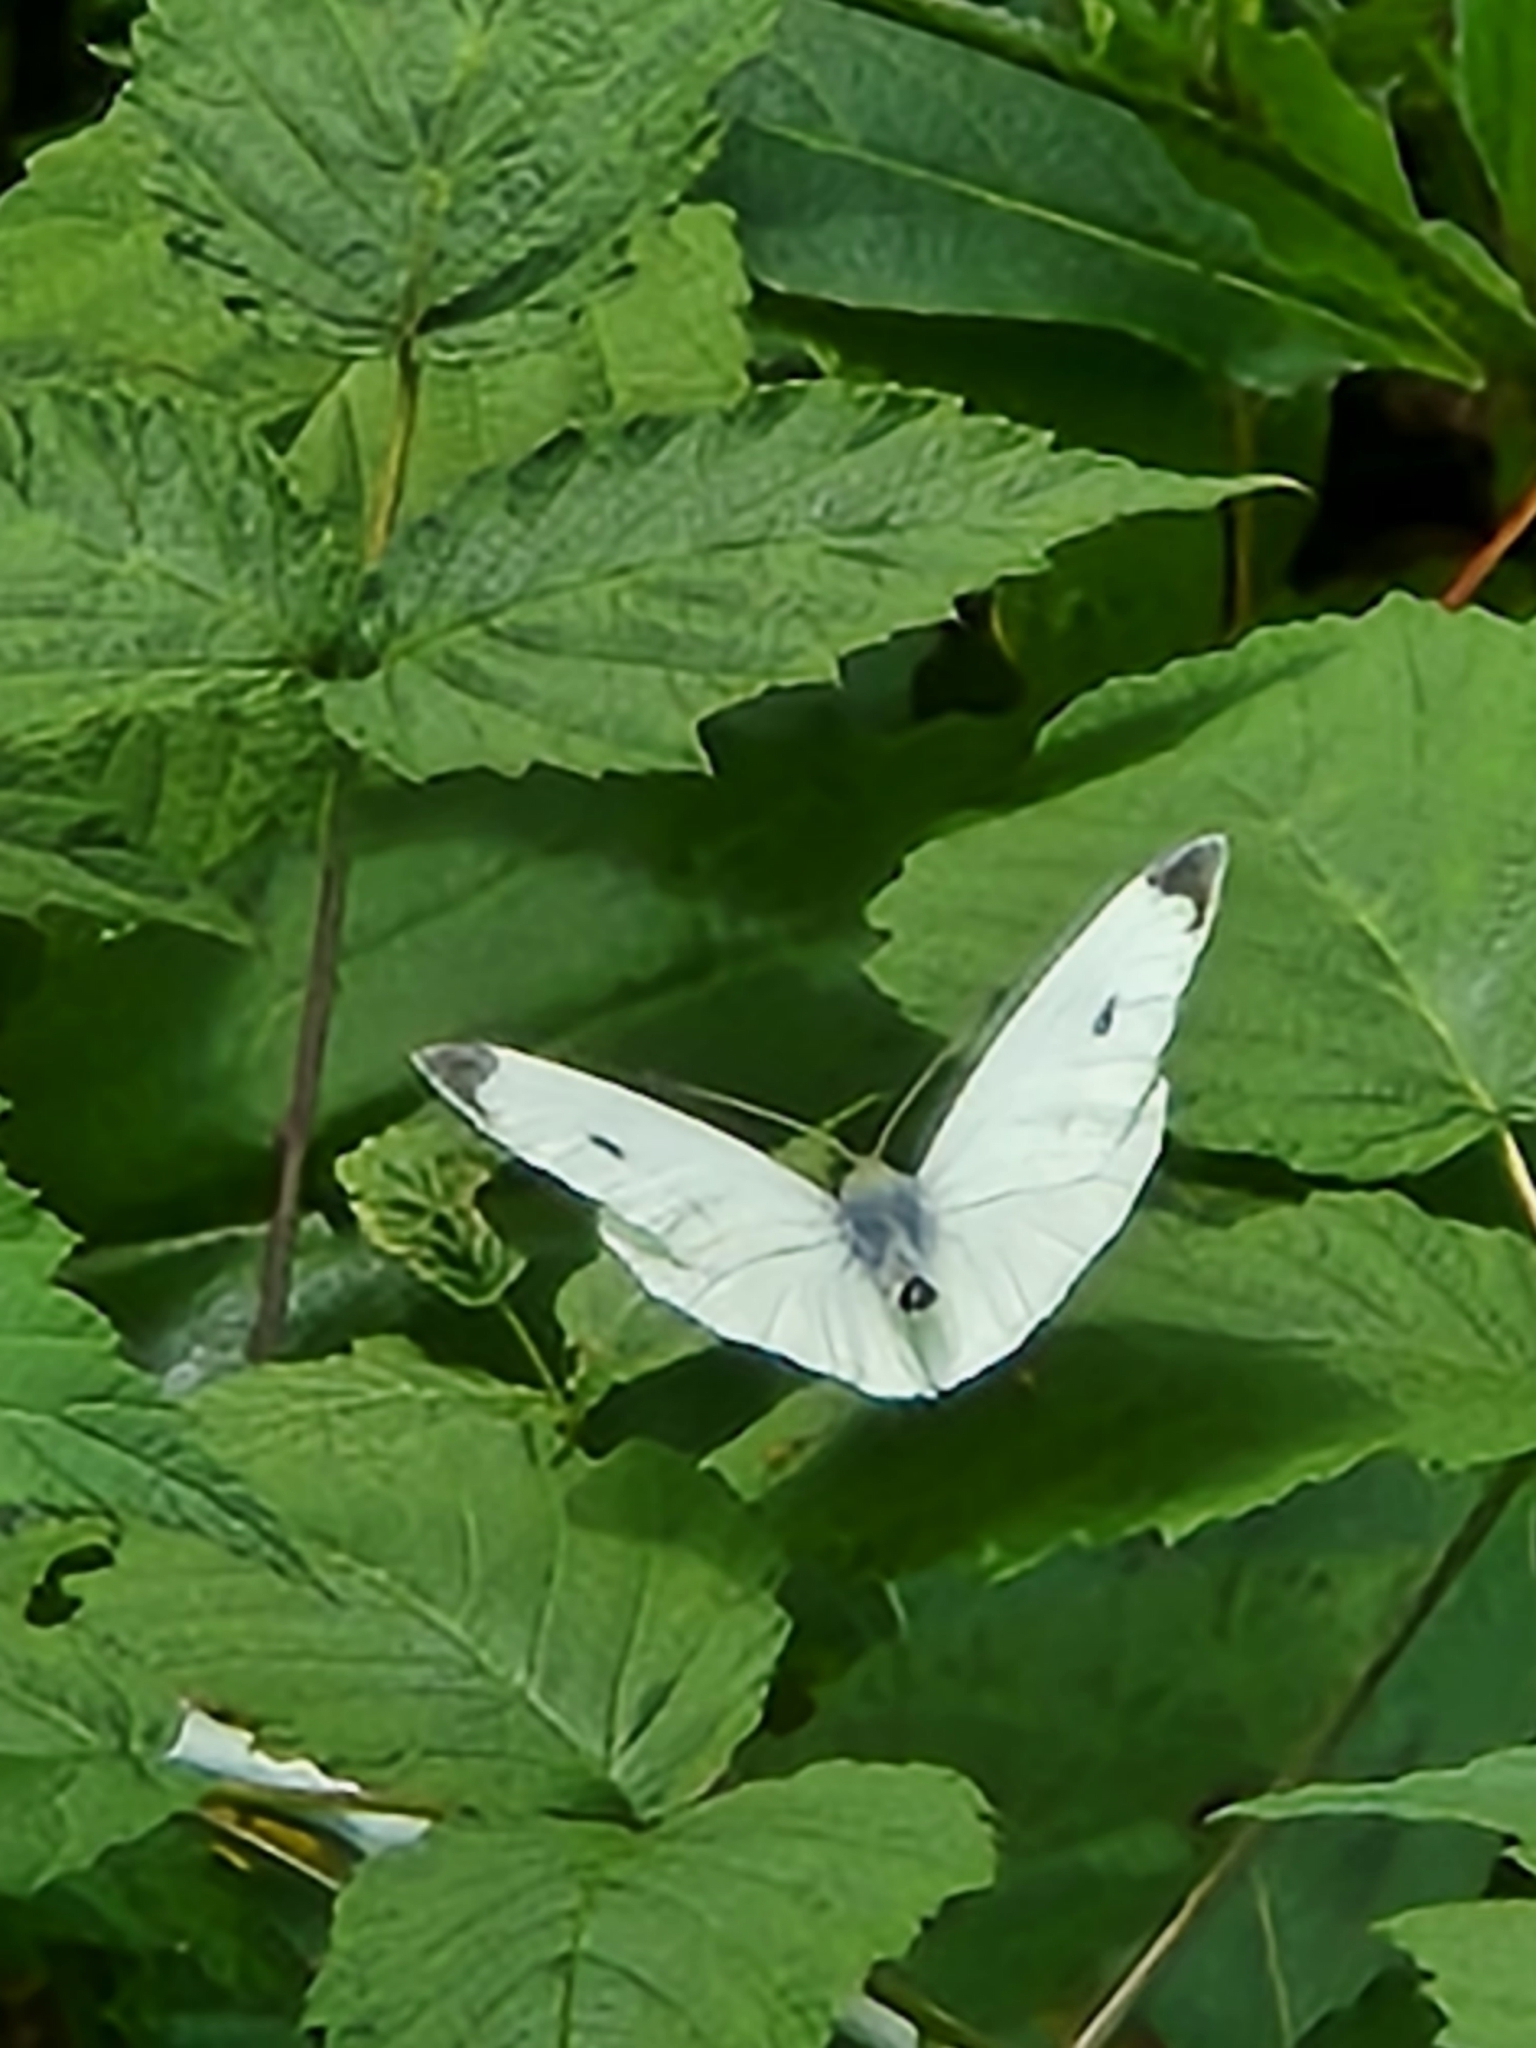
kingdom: Animalia
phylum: Arthropoda
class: Insecta
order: Lepidoptera
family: Pieridae
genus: Pieris
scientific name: Pieris rapae
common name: Small white
